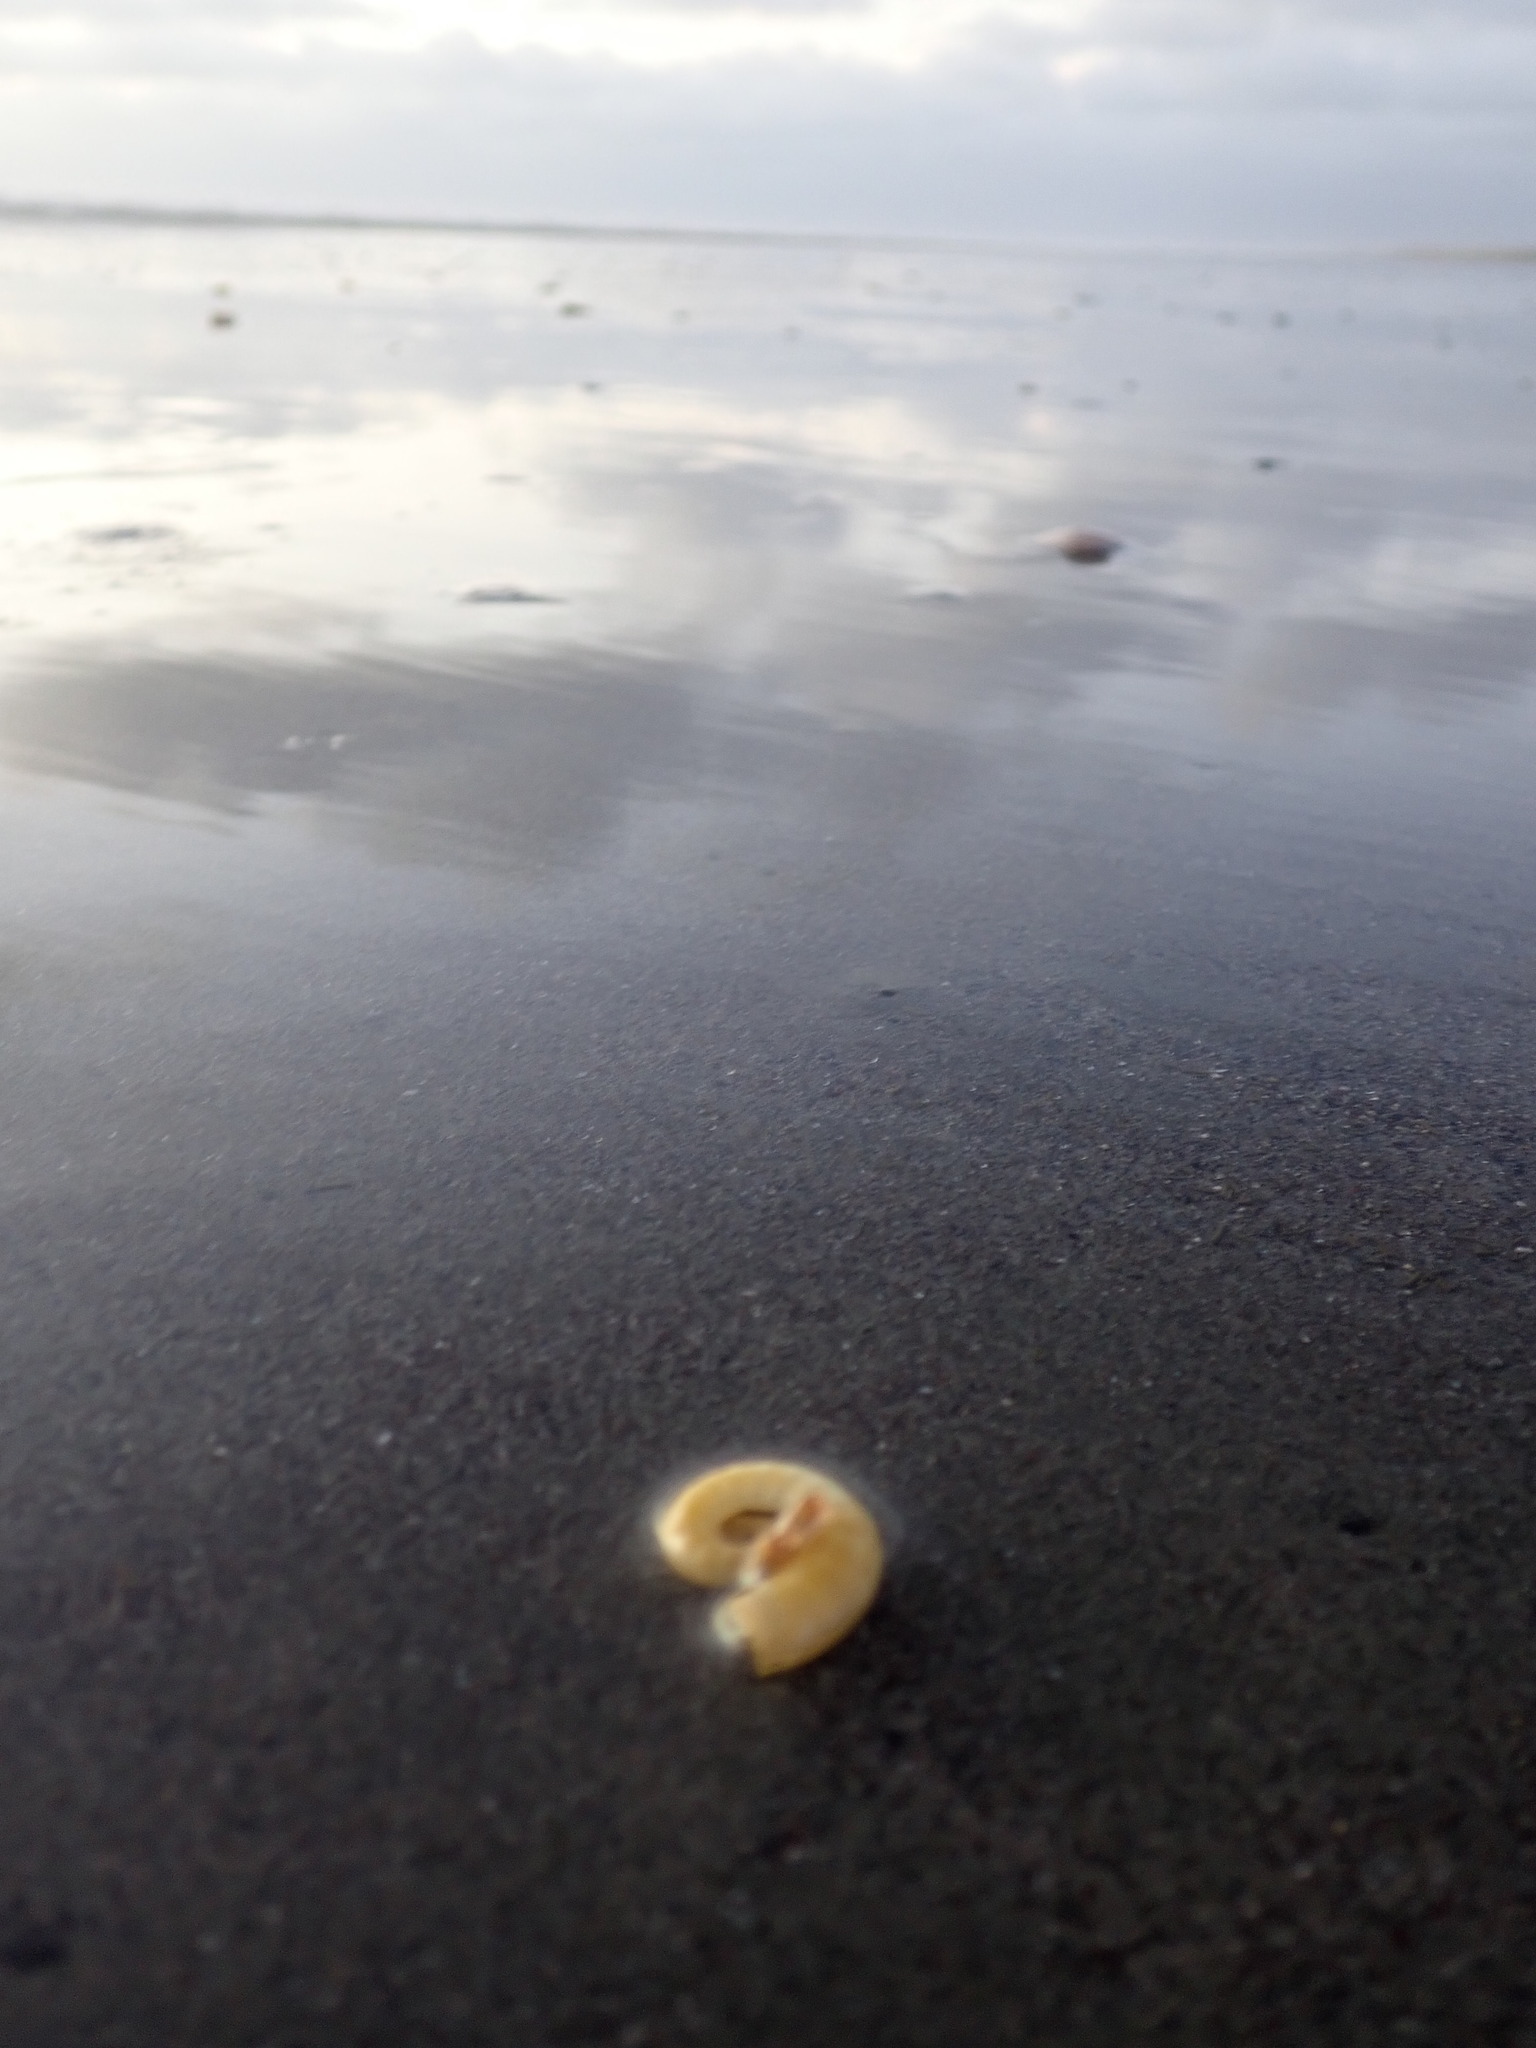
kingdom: Animalia
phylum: Mollusca
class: Cephalopoda
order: Spirulida
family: Spirulidae
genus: Spirula
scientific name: Spirula spirula
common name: Ram's horn squid
